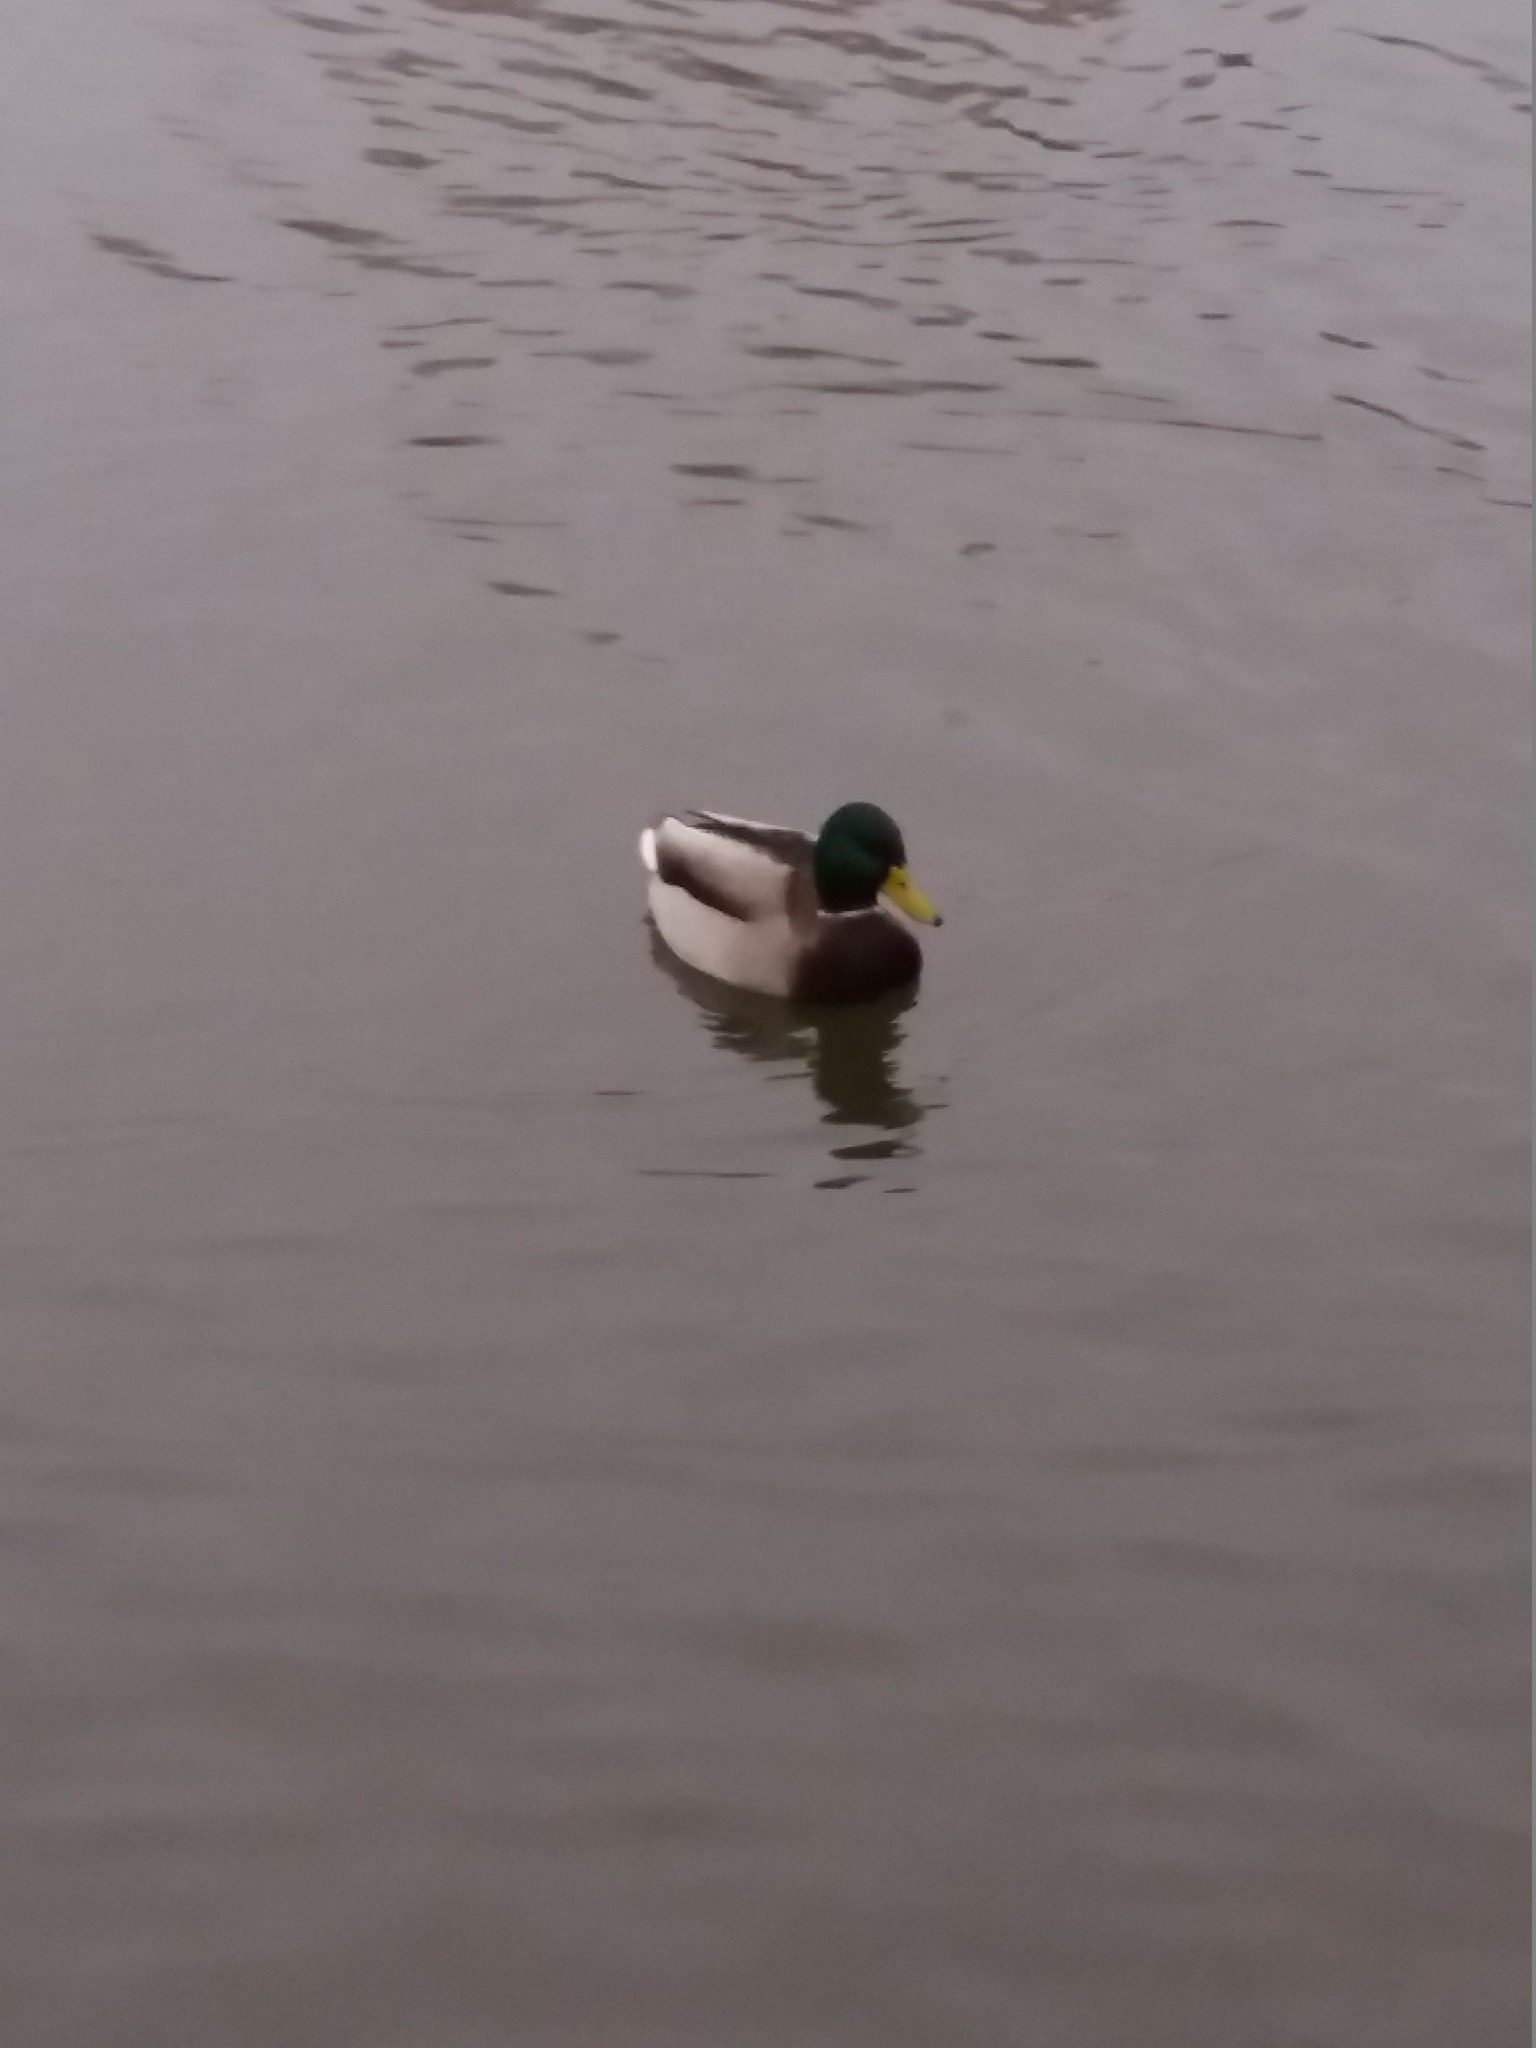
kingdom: Animalia
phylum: Chordata
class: Aves
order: Anseriformes
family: Anatidae
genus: Anas
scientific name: Anas platyrhynchos
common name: Mallard
